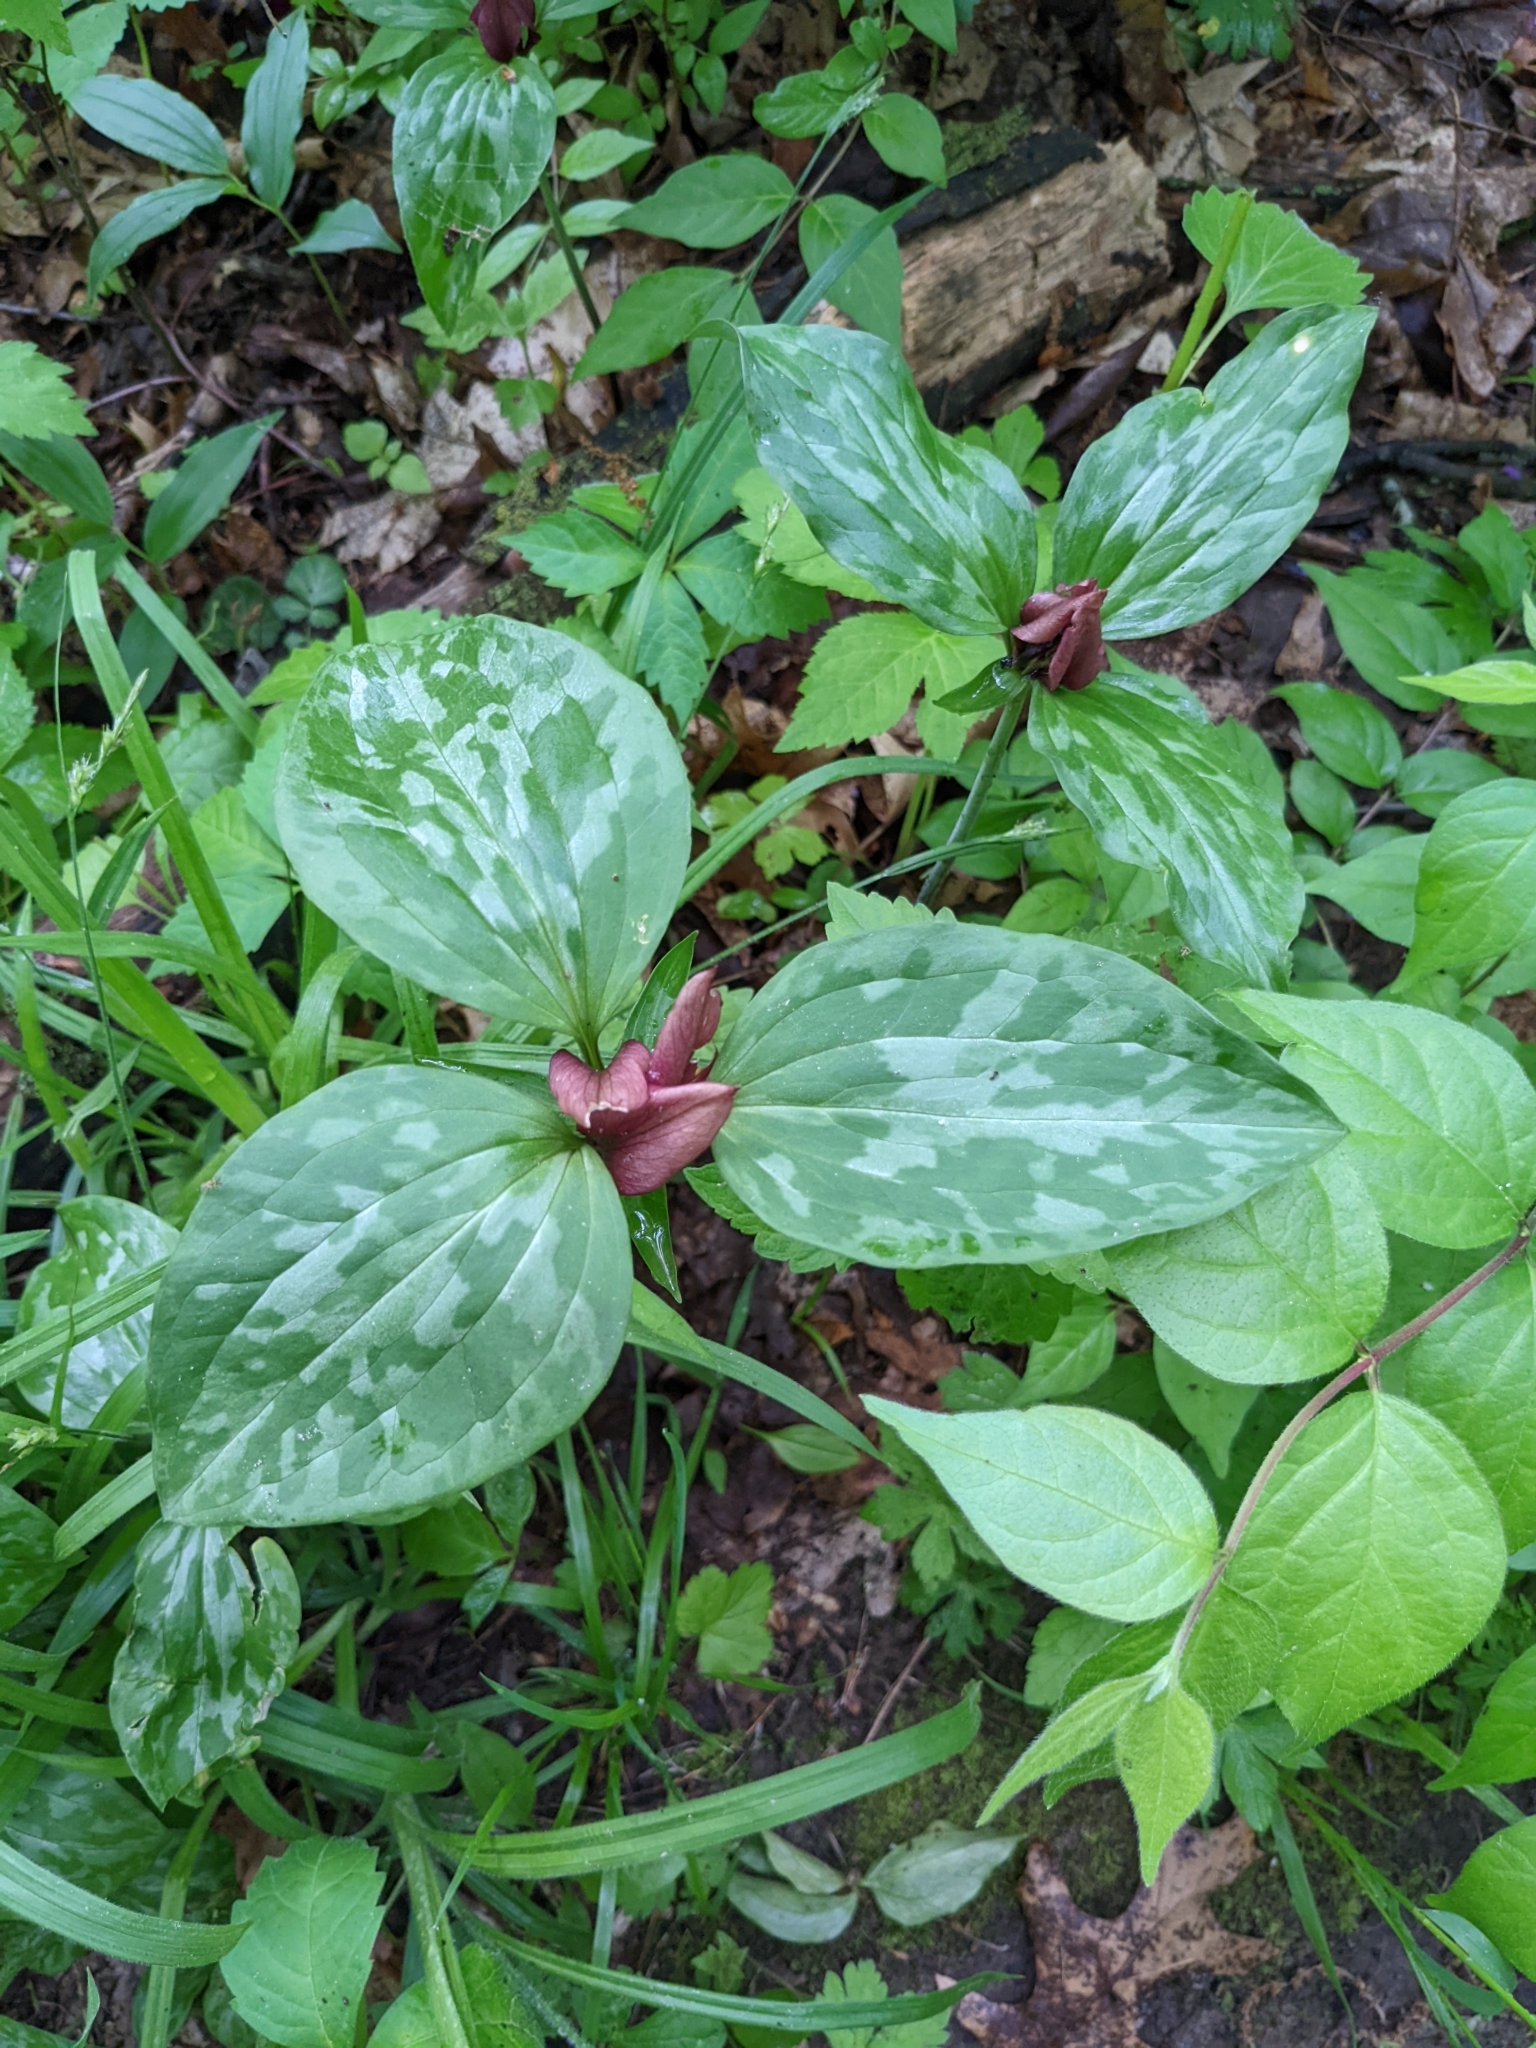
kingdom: Plantae
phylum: Tracheophyta
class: Liliopsida
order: Liliales
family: Melanthiaceae
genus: Trillium
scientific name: Trillium recurvatum
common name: Bloody butcher
